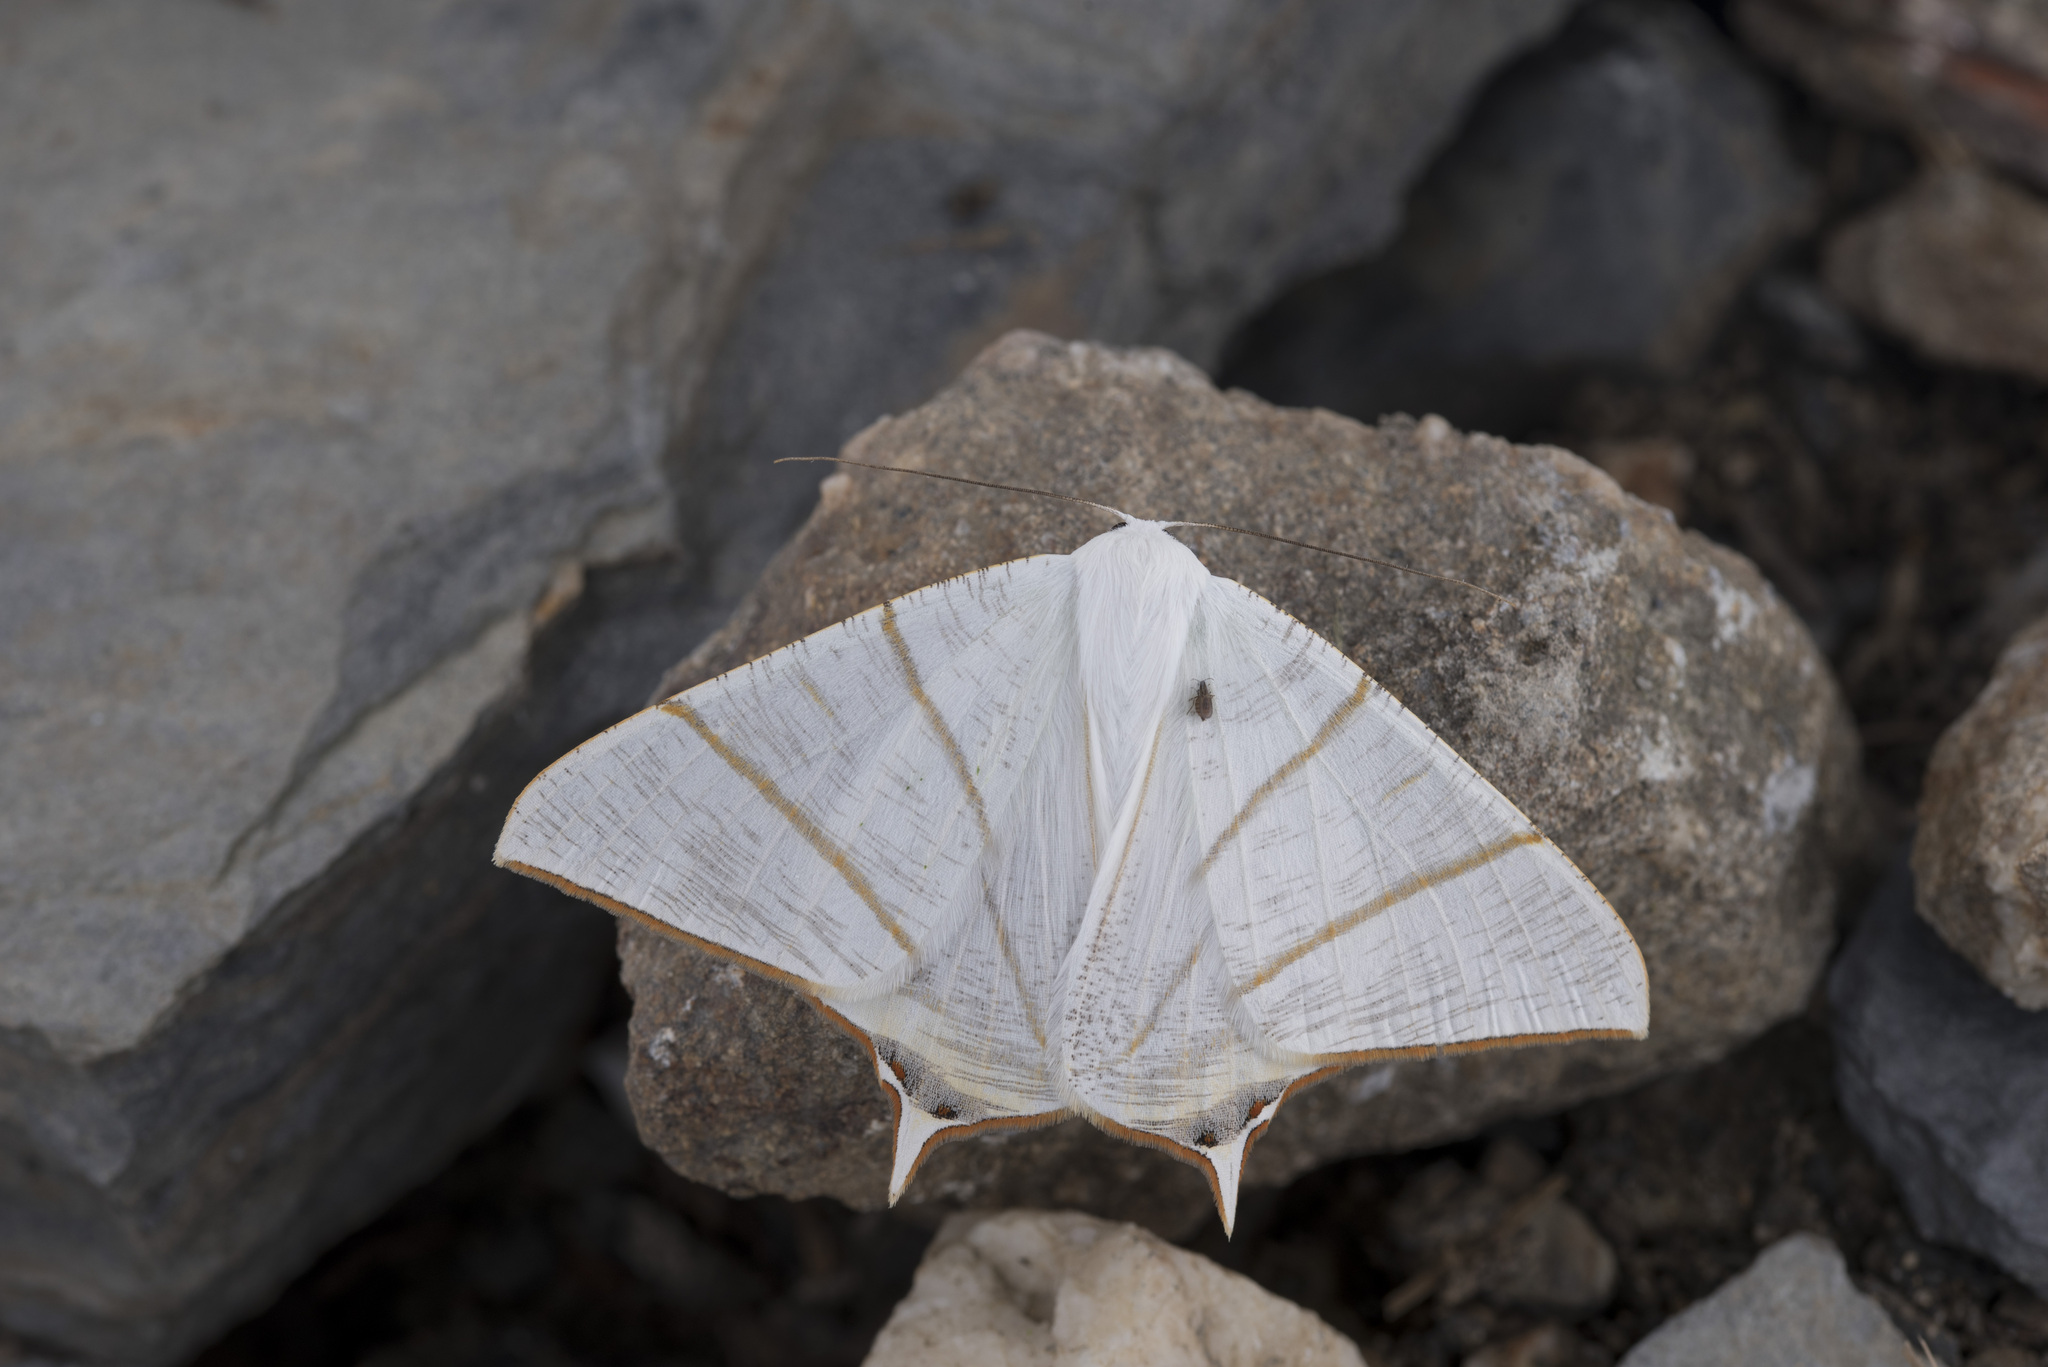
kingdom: Animalia
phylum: Arthropoda
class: Insecta
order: Lepidoptera
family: Geometridae
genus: Ourapteryx
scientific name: Ourapteryx changi
